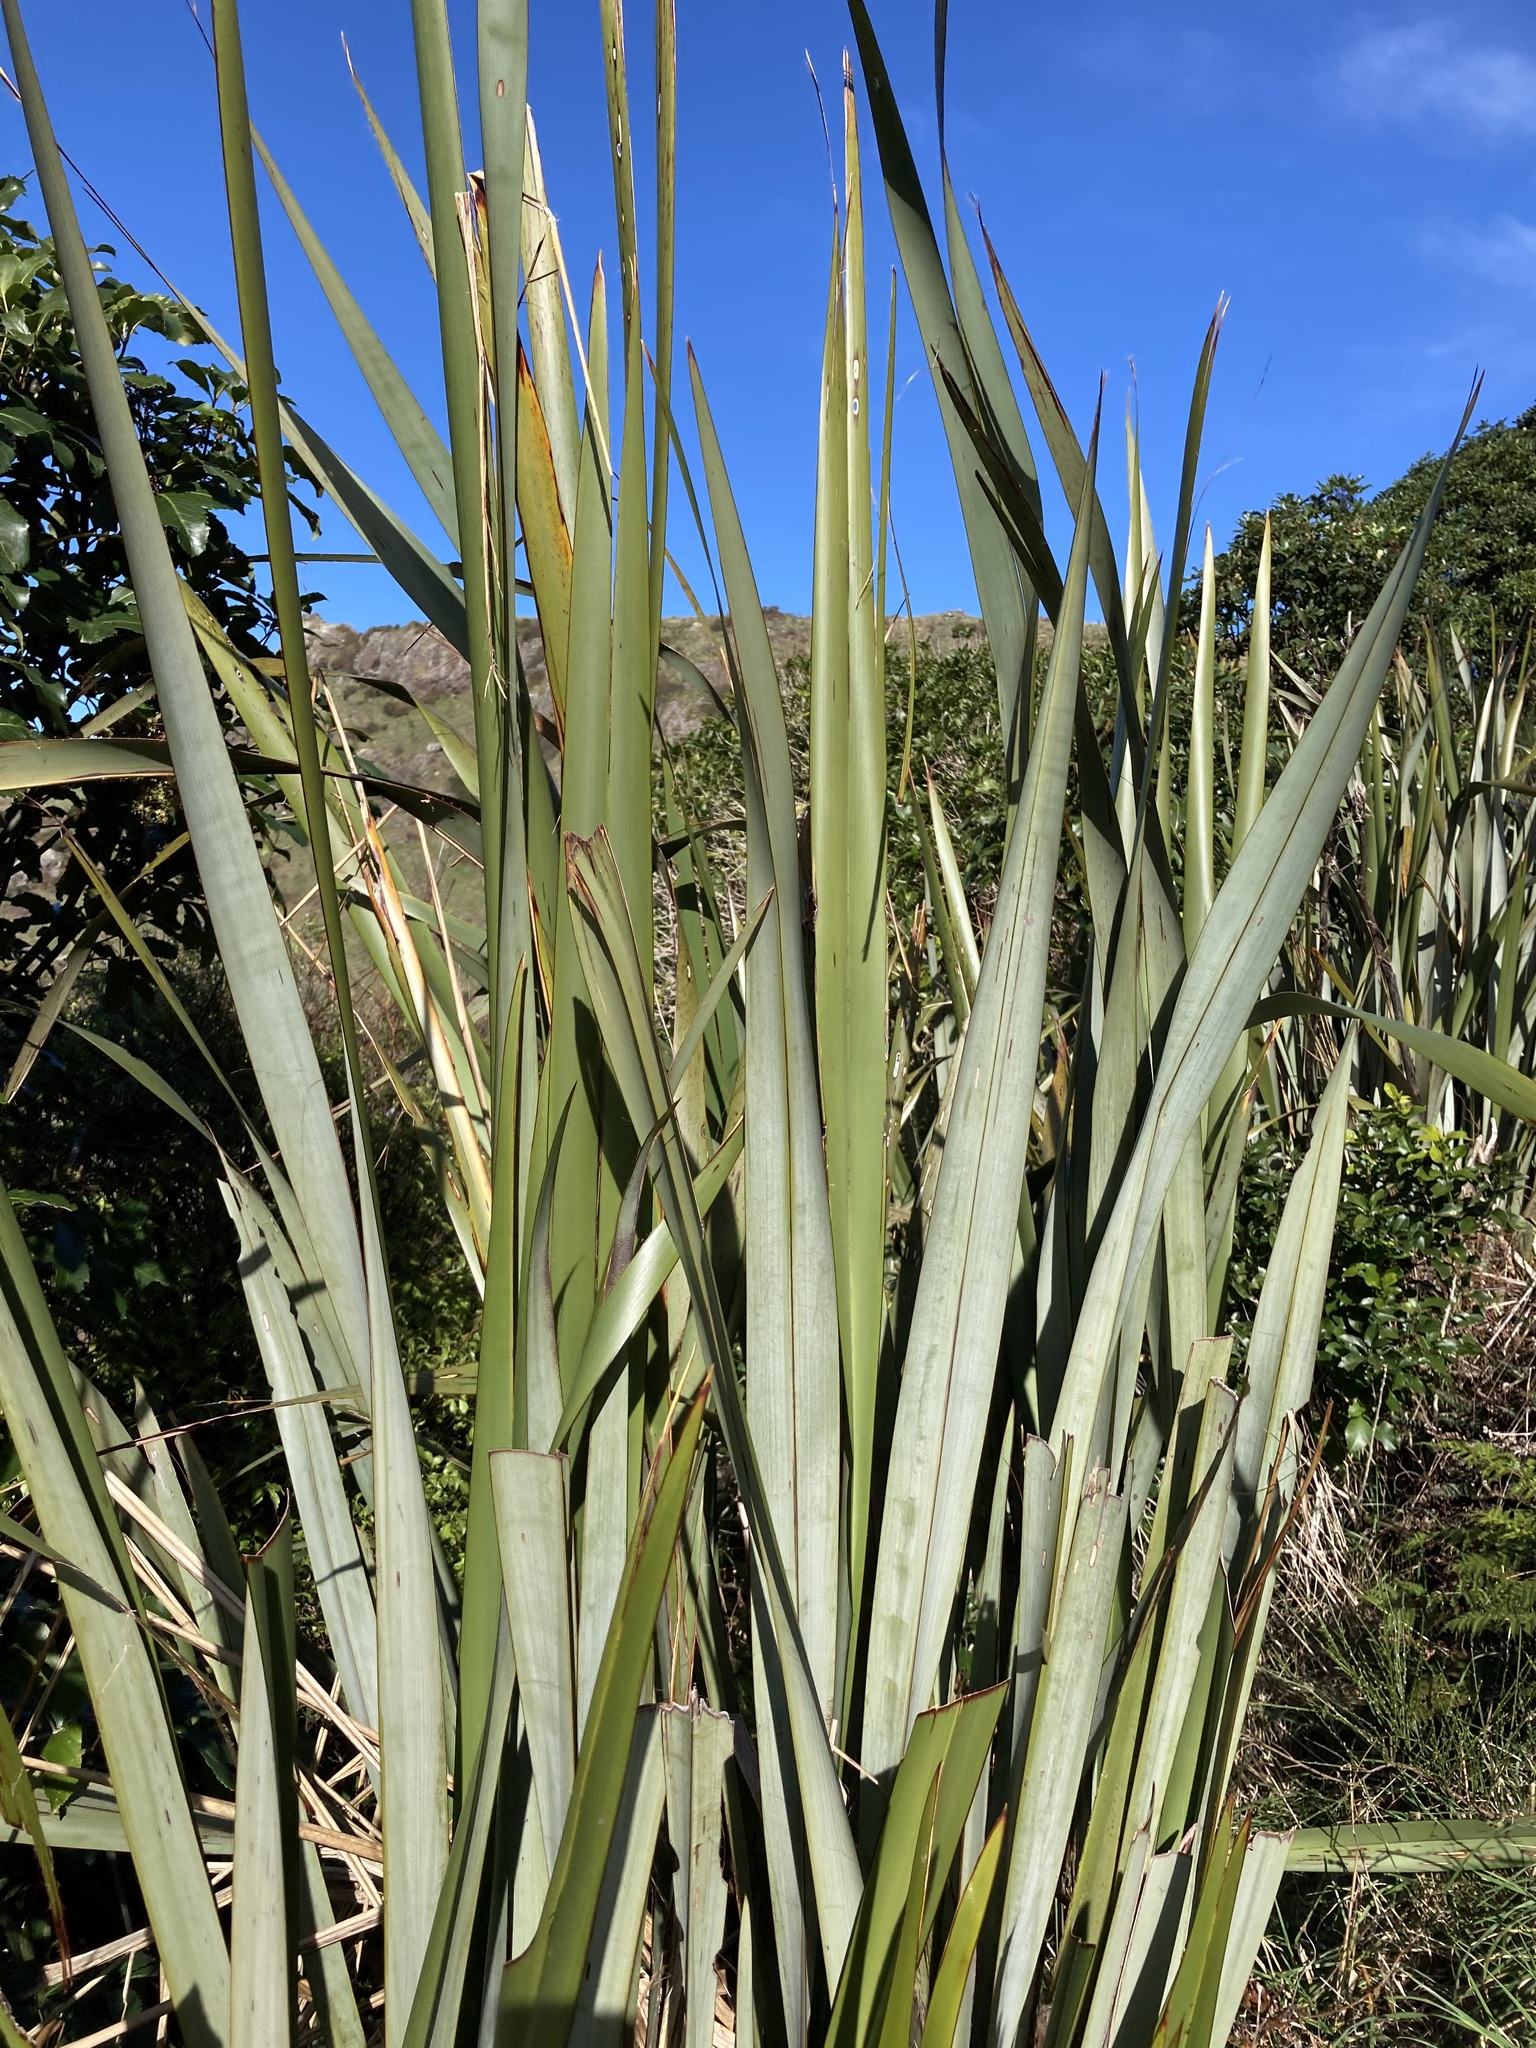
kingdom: Plantae
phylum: Tracheophyta
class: Liliopsida
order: Asparagales
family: Asphodelaceae
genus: Phormium
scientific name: Phormium tenax
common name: New zealand flax
